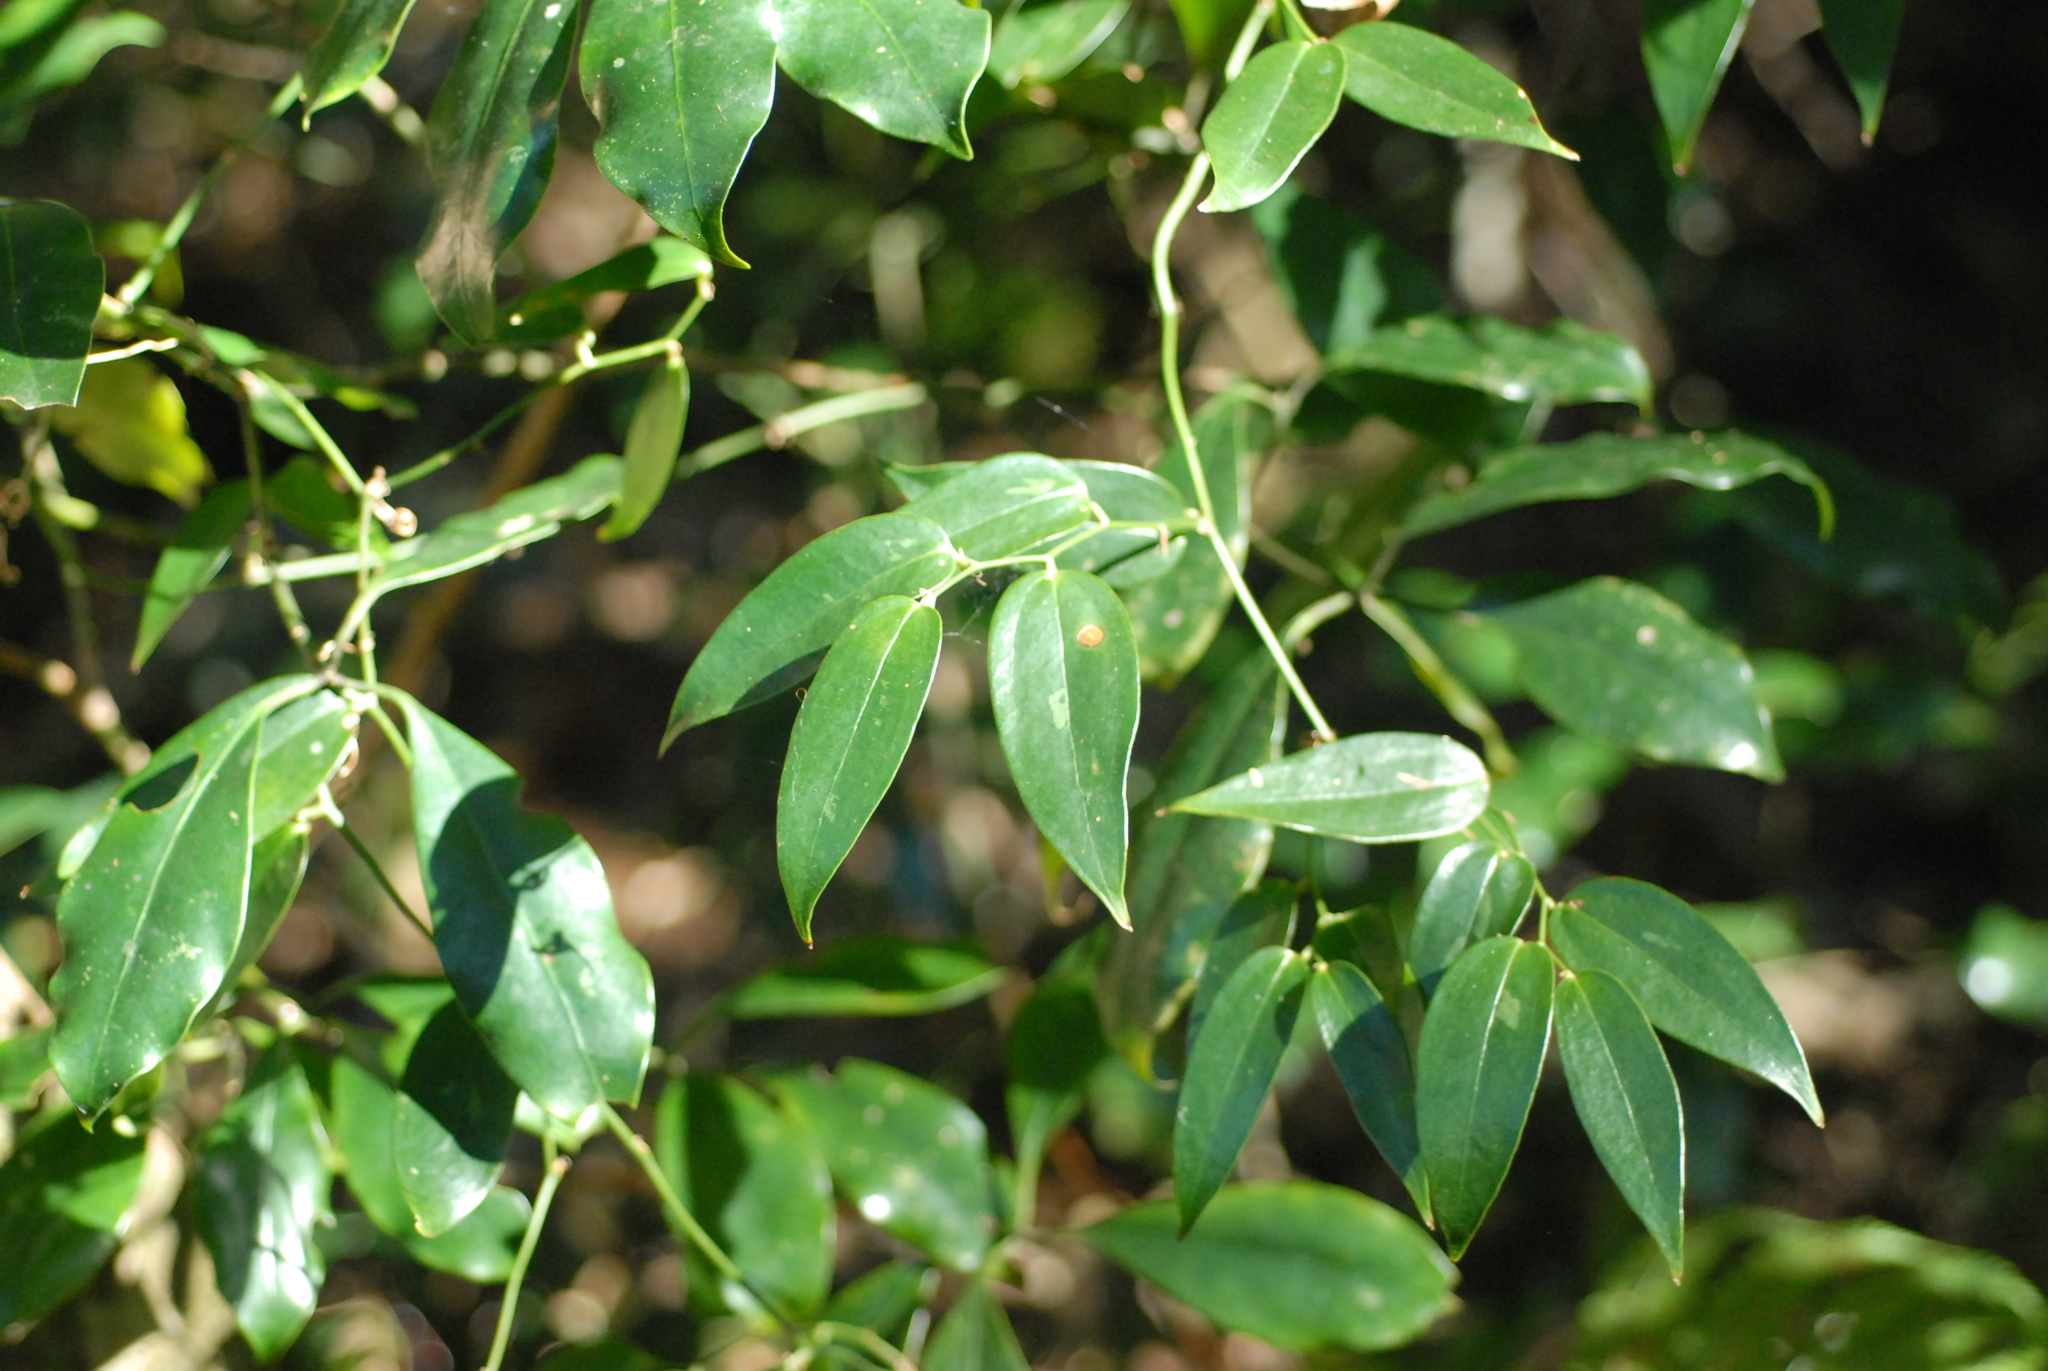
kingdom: Plantae
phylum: Tracheophyta
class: Liliopsida
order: Liliales
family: Smilacaceae
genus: Smilax
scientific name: Smilax arisanensis
